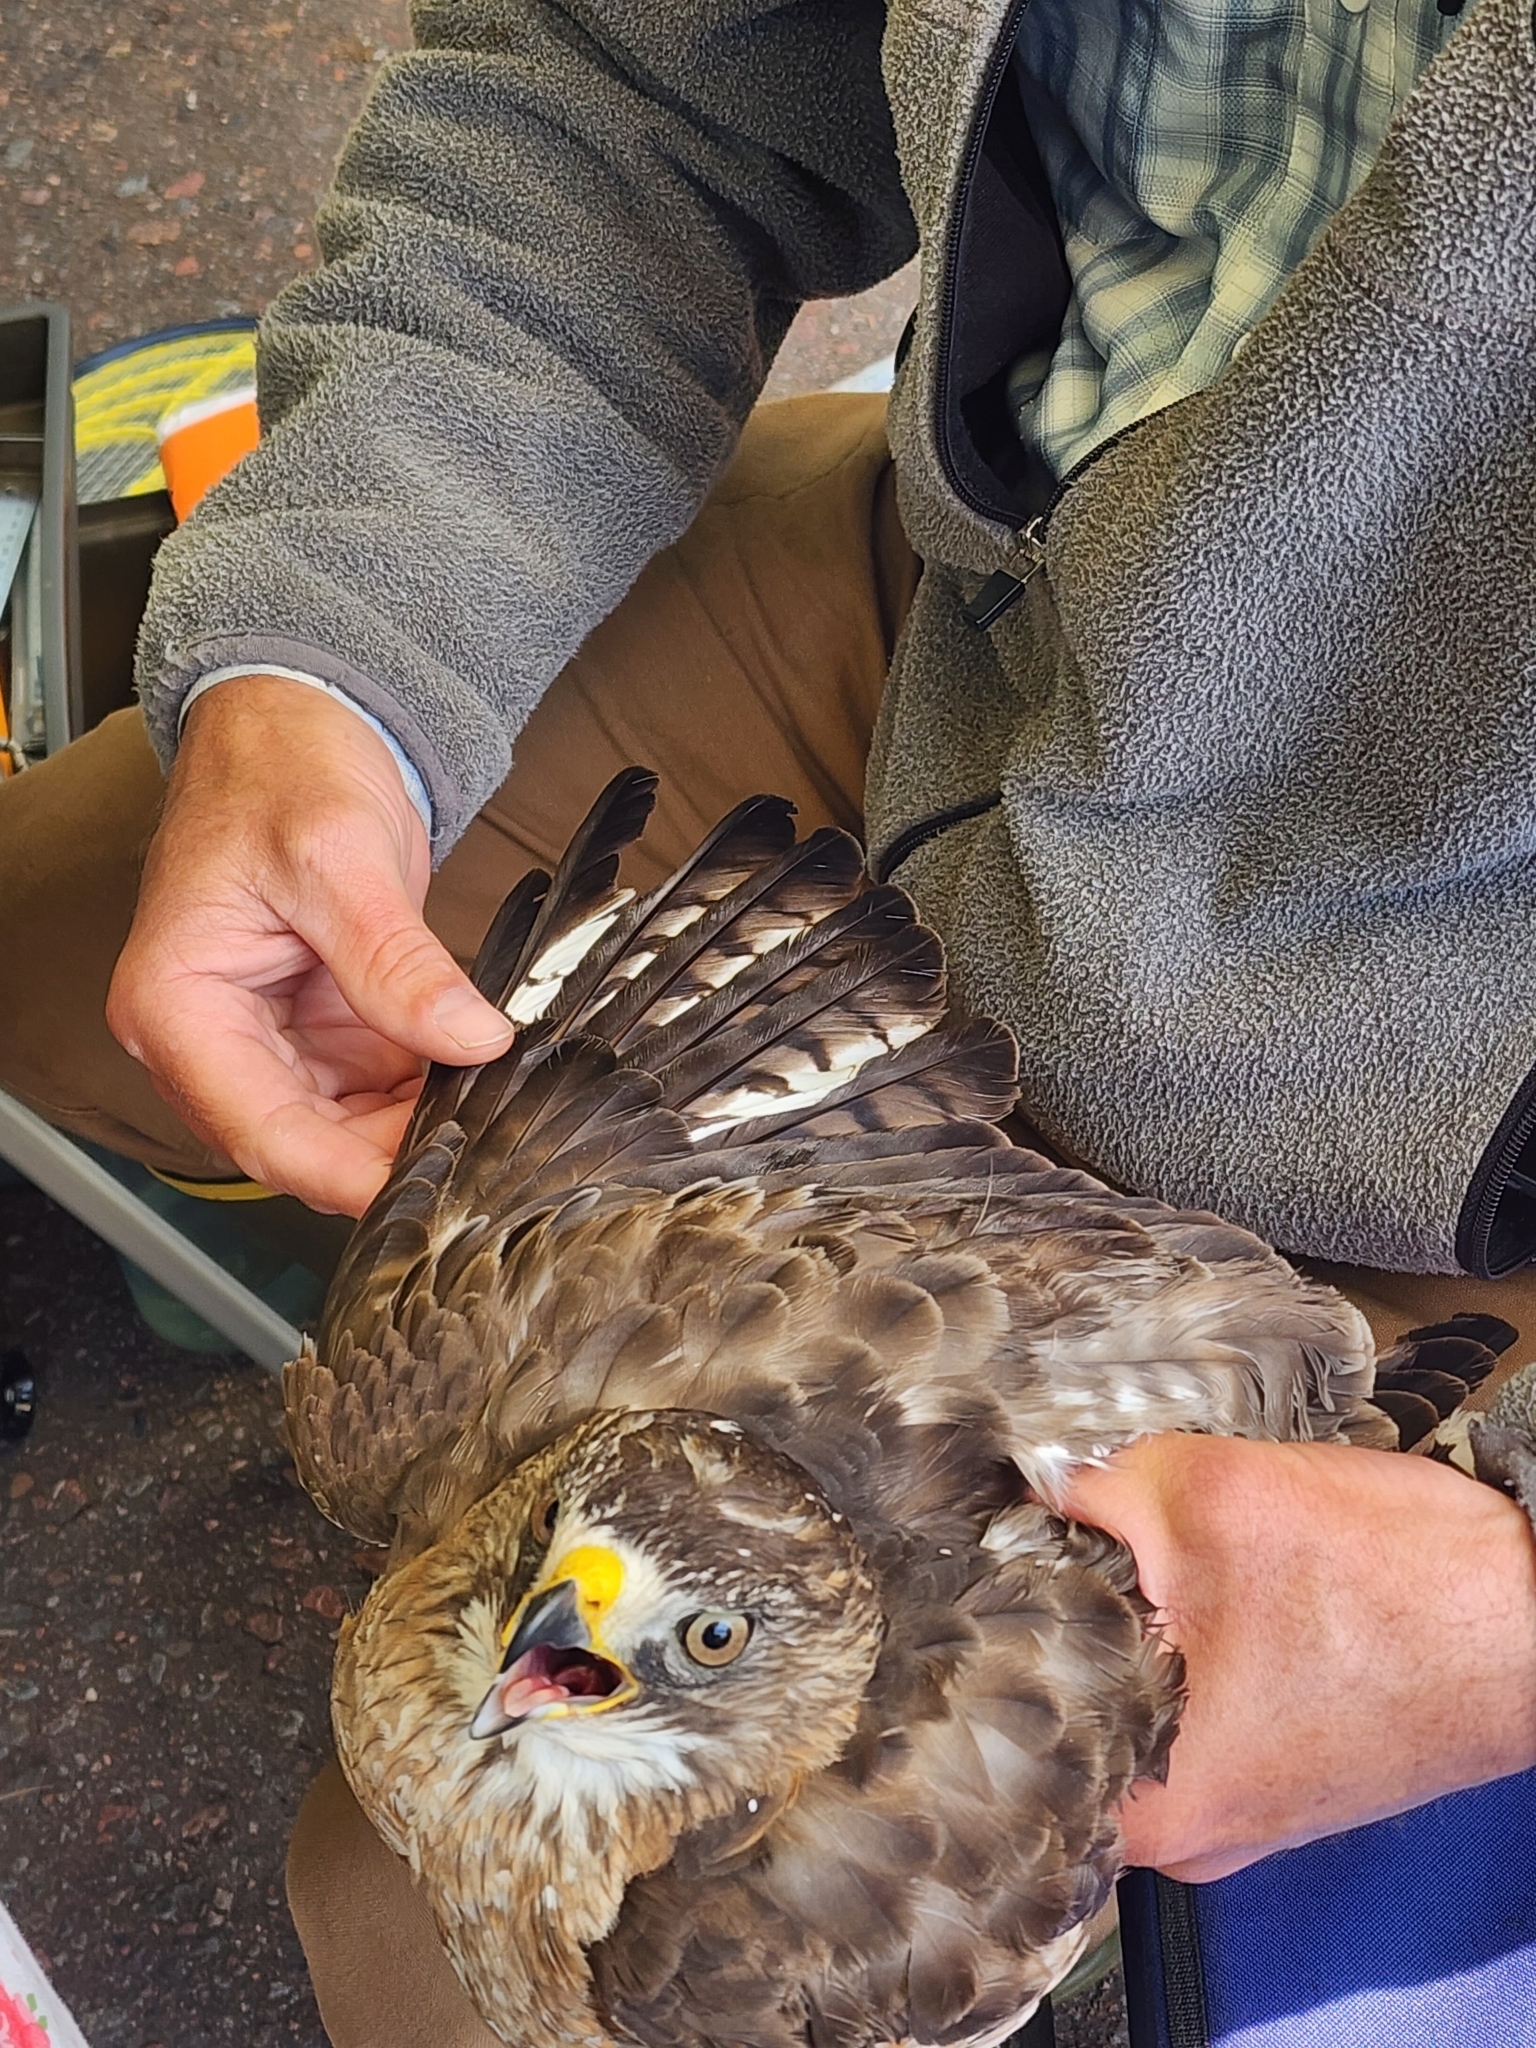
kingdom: Animalia
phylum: Chordata
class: Aves
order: Accipitriformes
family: Accipitridae
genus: Buteo
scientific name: Buteo platypterus
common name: Broad-winged hawk
